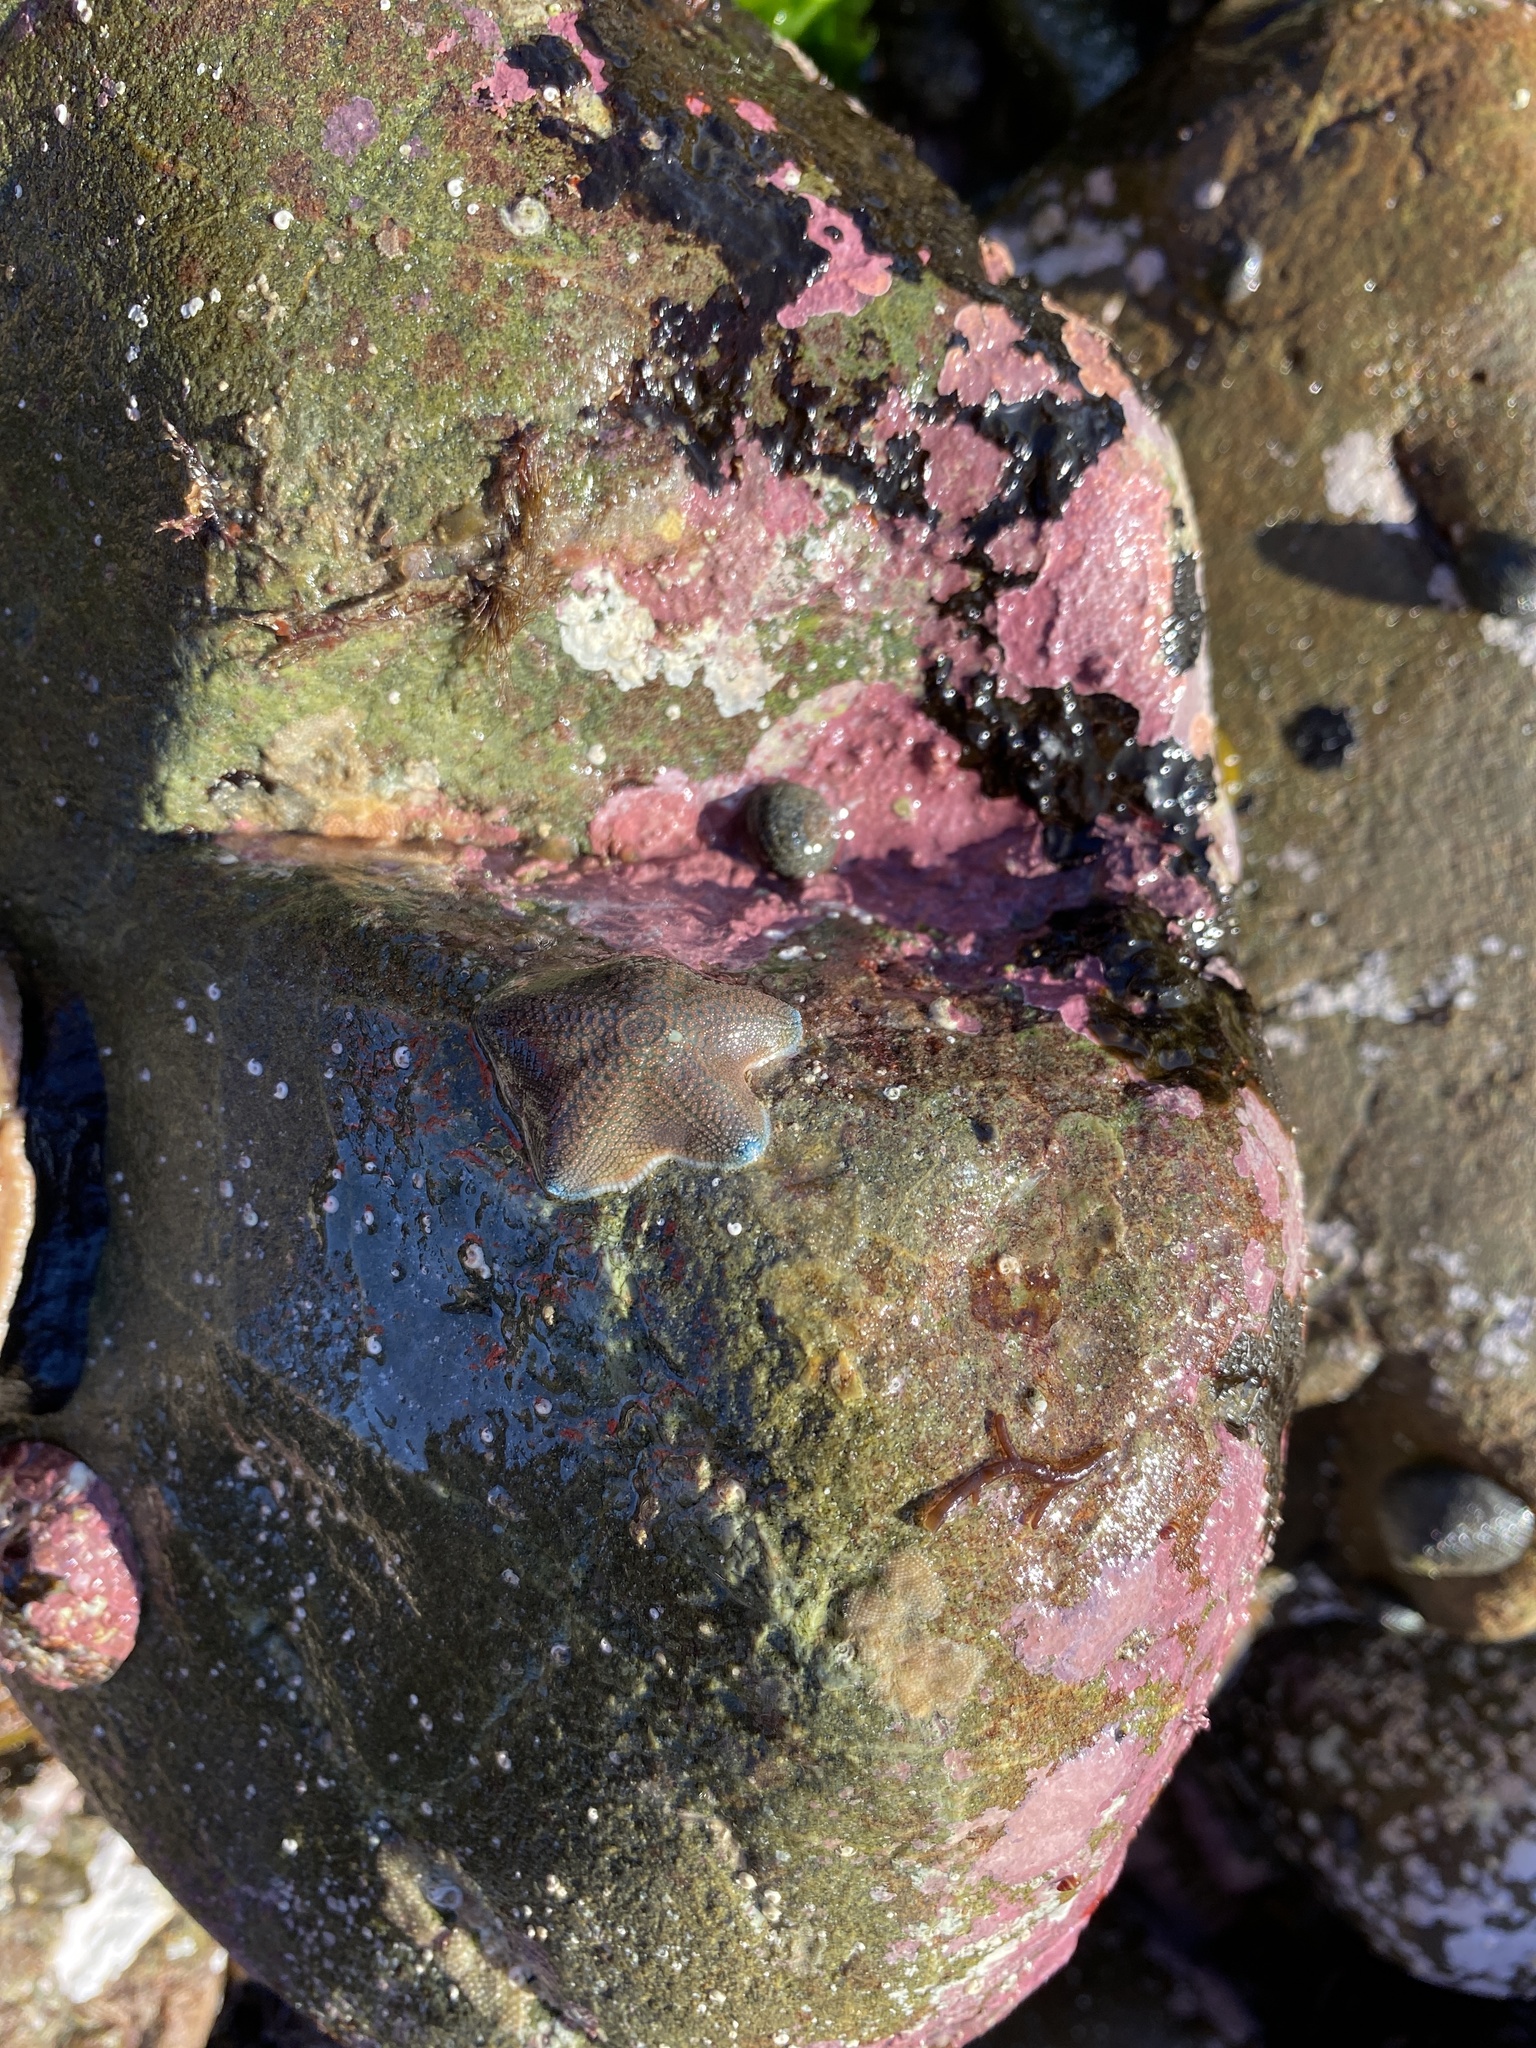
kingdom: Animalia
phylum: Echinodermata
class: Asteroidea
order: Valvatida
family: Asterinidae
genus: Patiriella
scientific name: Patiriella regularis
